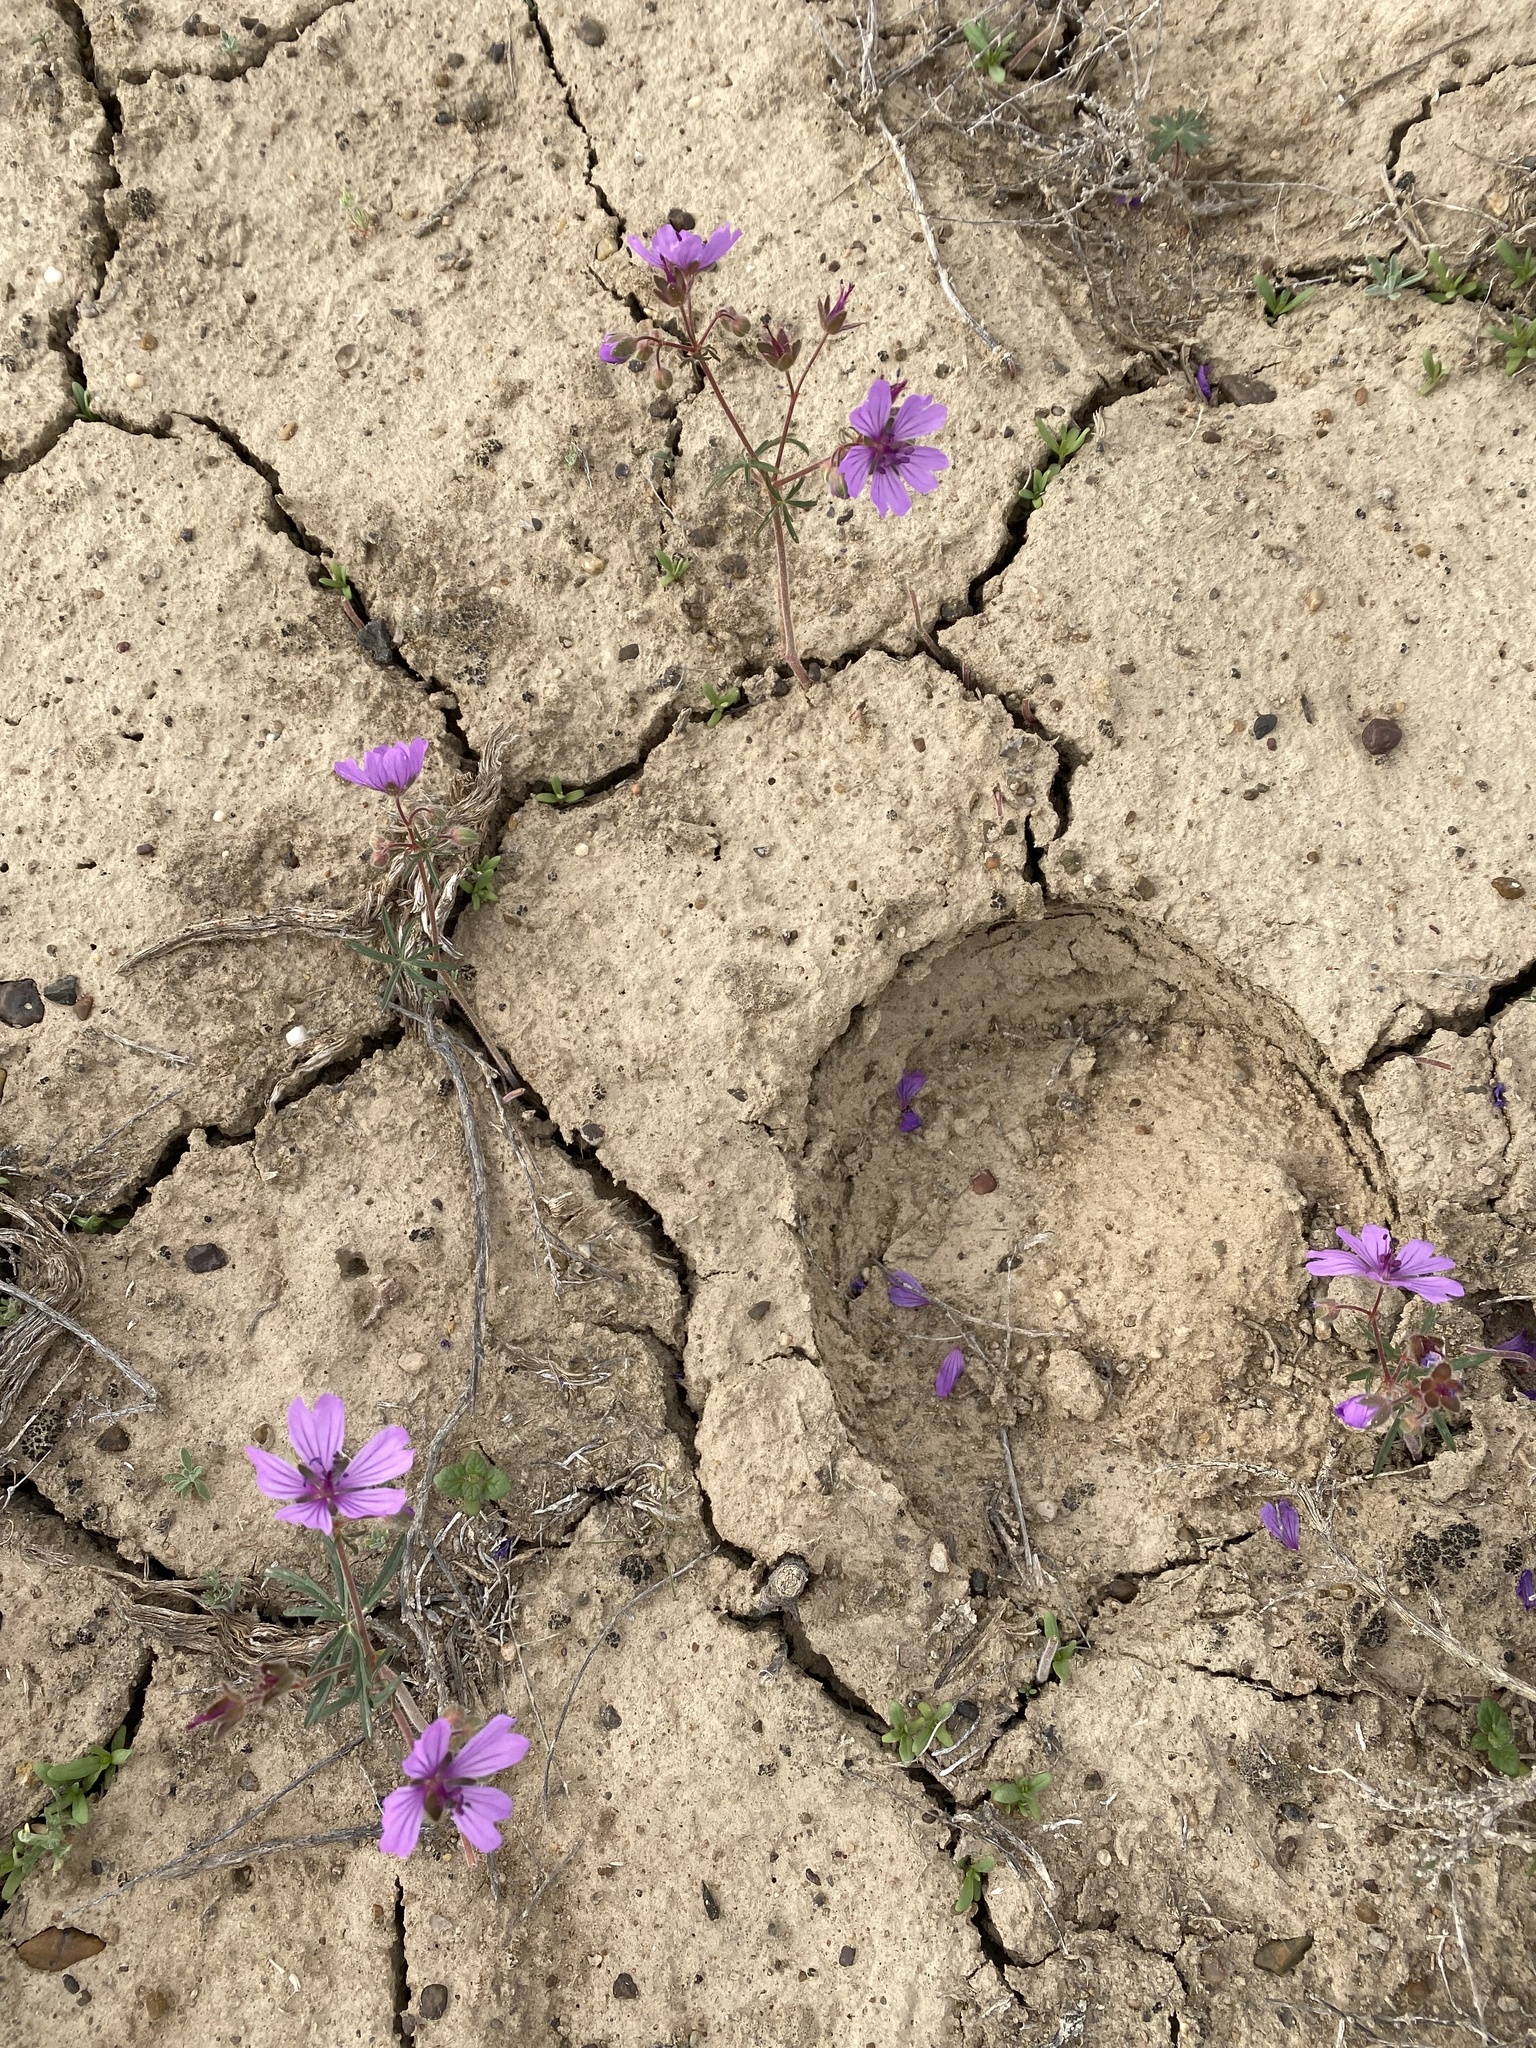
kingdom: Plantae
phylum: Tracheophyta
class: Magnoliopsida
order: Geraniales
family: Geraniaceae
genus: Geranium
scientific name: Geranium linearilobum
